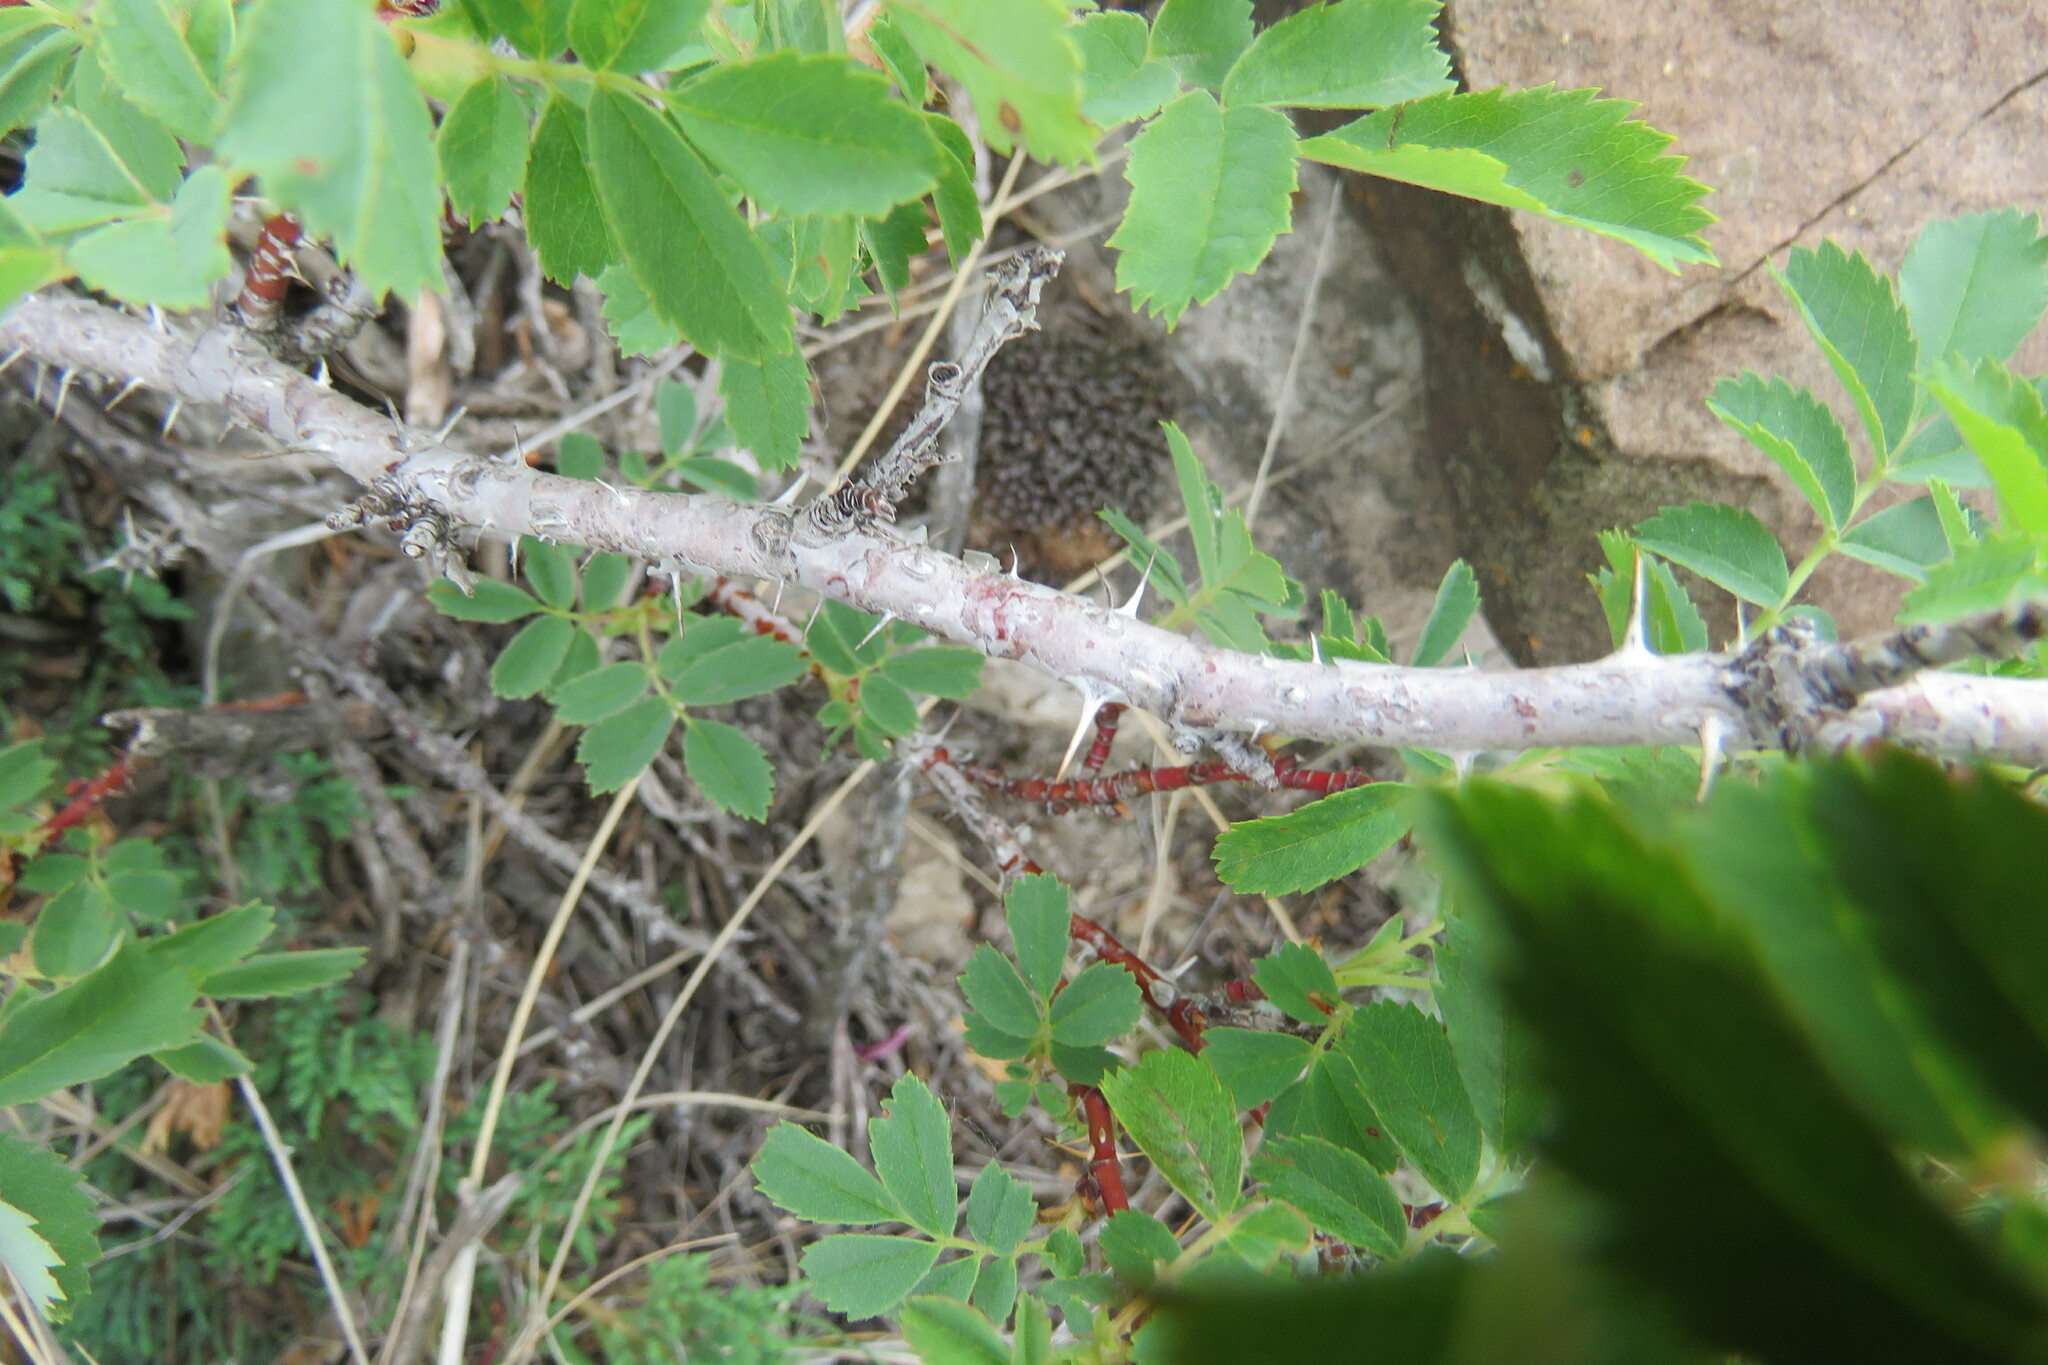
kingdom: Plantae
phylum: Tracheophyta
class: Magnoliopsida
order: Rosales
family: Rosaceae
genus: Rosa
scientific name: Rosa woodsii
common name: Woods's rose
